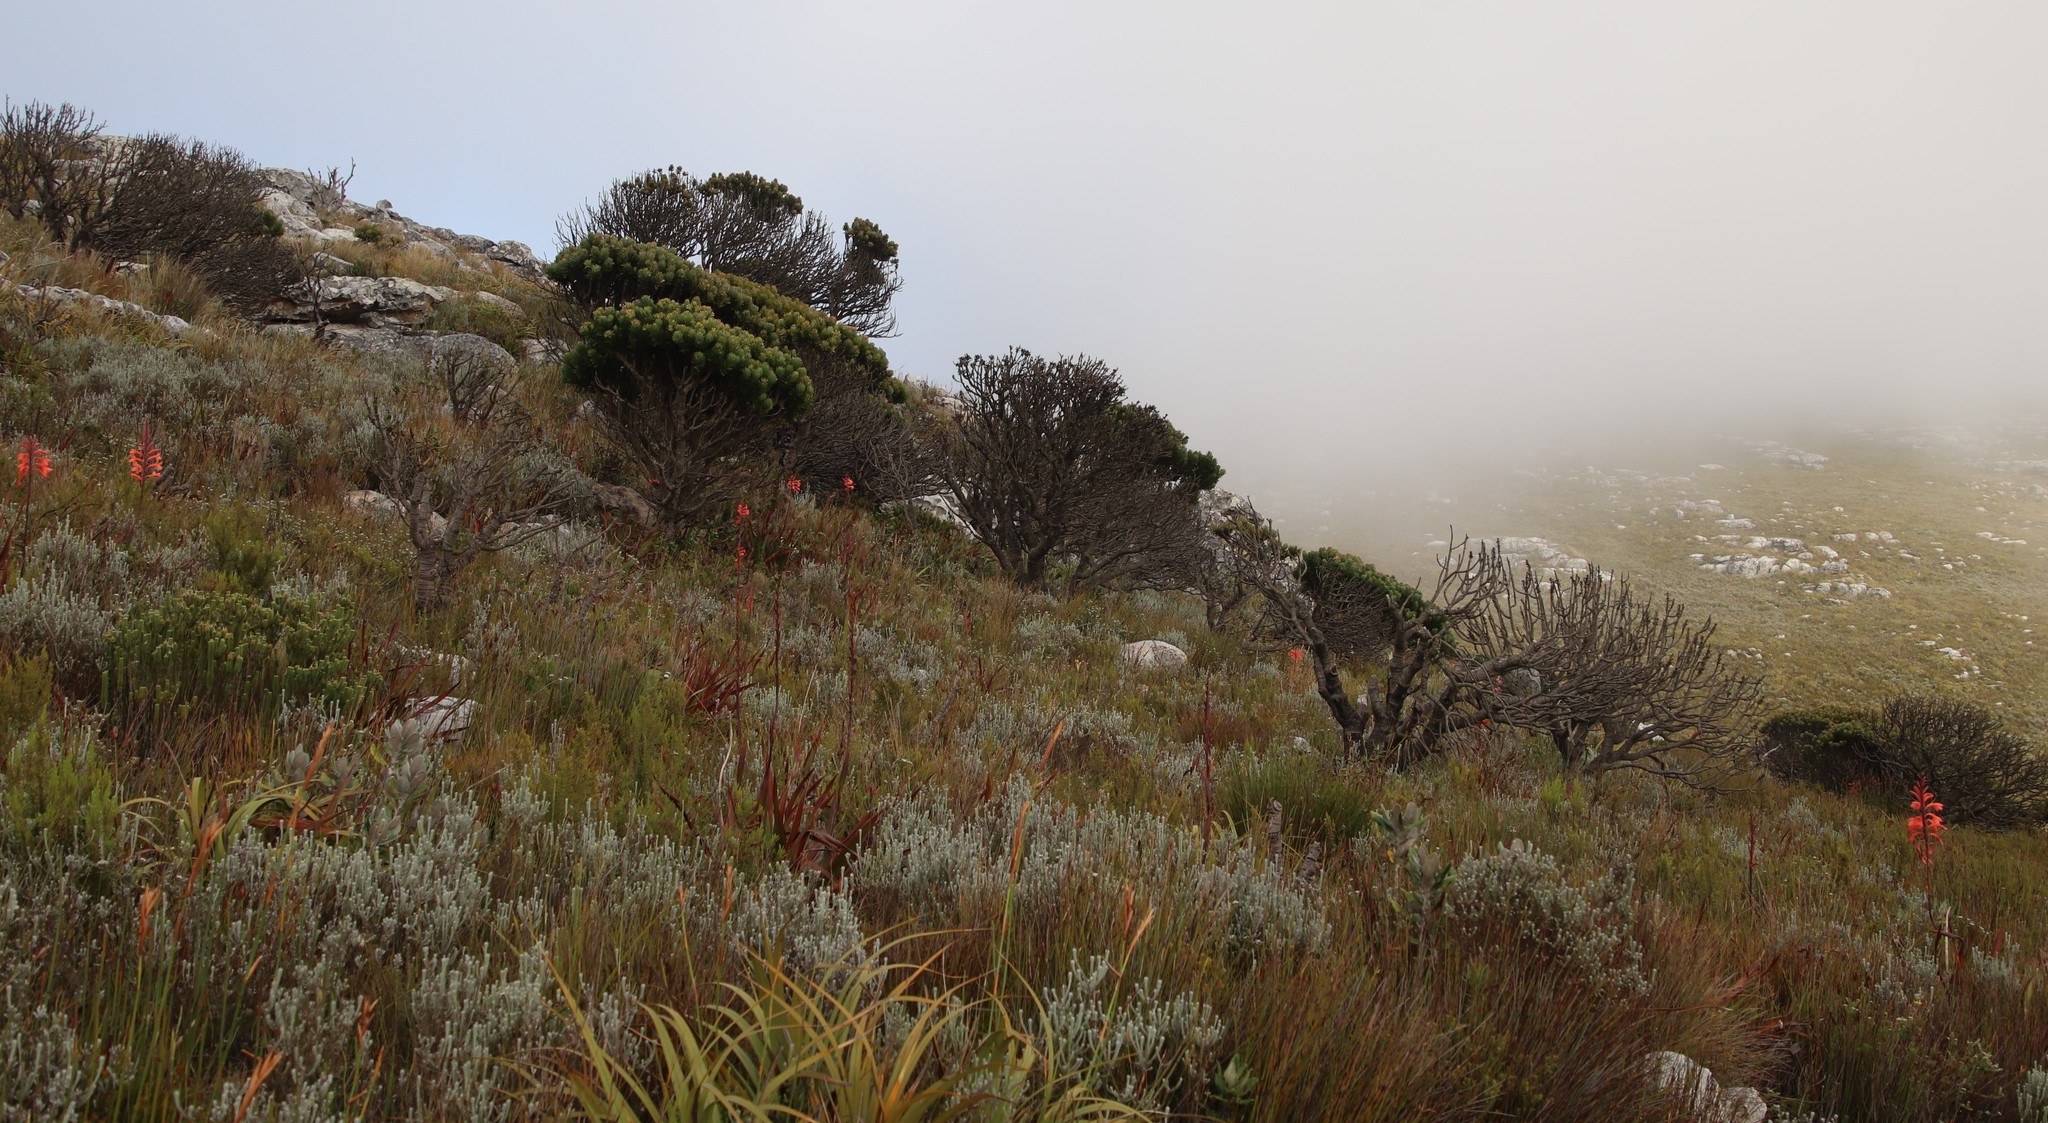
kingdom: Plantae
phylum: Tracheophyta
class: Magnoliopsida
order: Proteales
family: Proteaceae
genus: Mimetes
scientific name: Mimetes fimbriifolius
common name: Fringed bottlebrush
